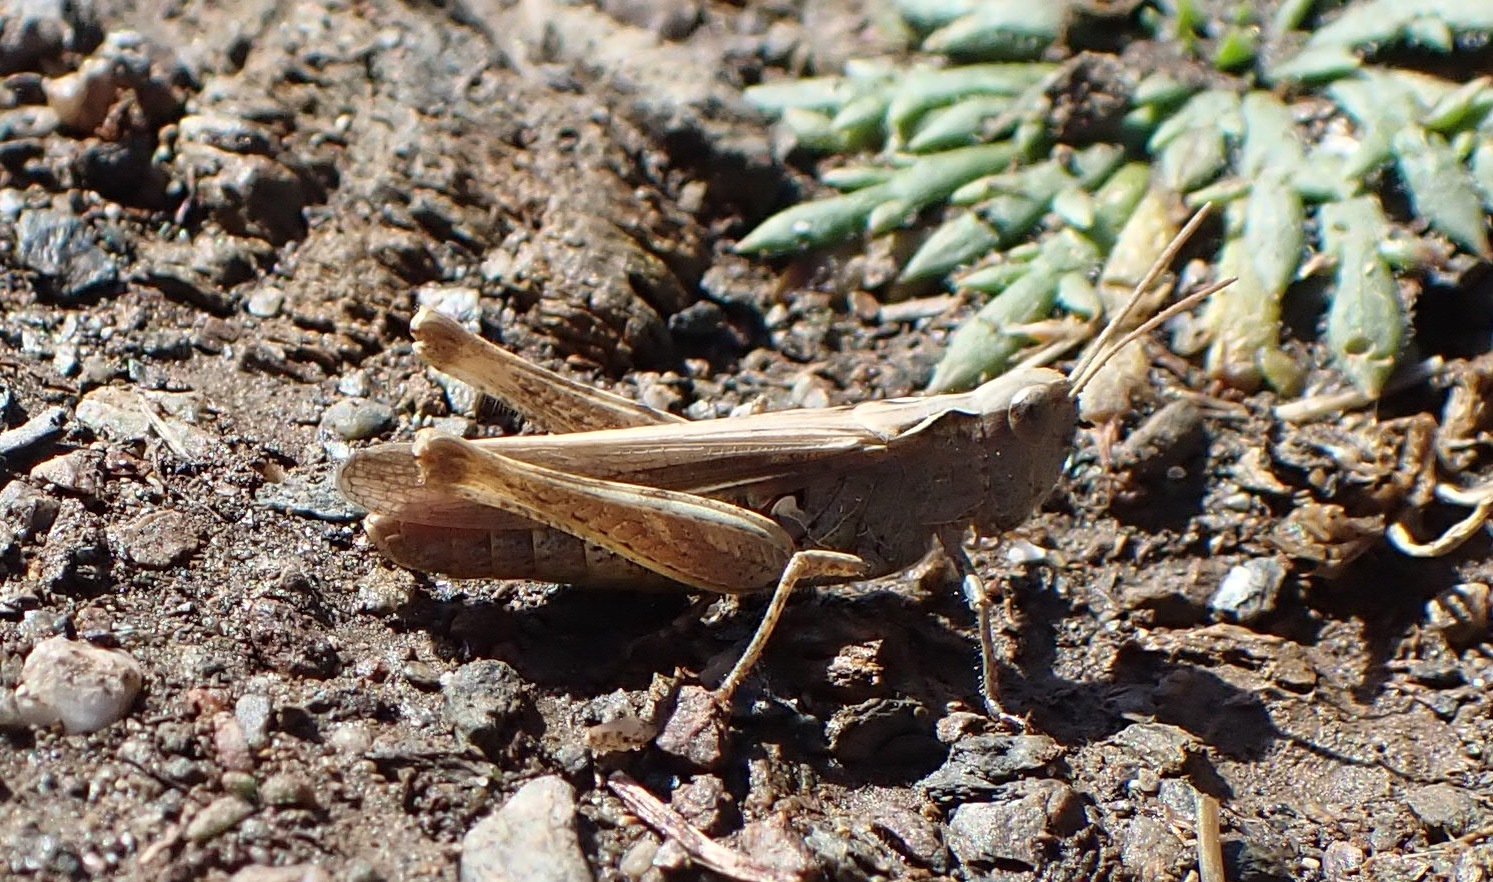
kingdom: Animalia
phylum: Arthropoda
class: Insecta
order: Orthoptera
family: Acrididae
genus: Chorthippus
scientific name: Chorthippus brunneus
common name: Field grasshopper
